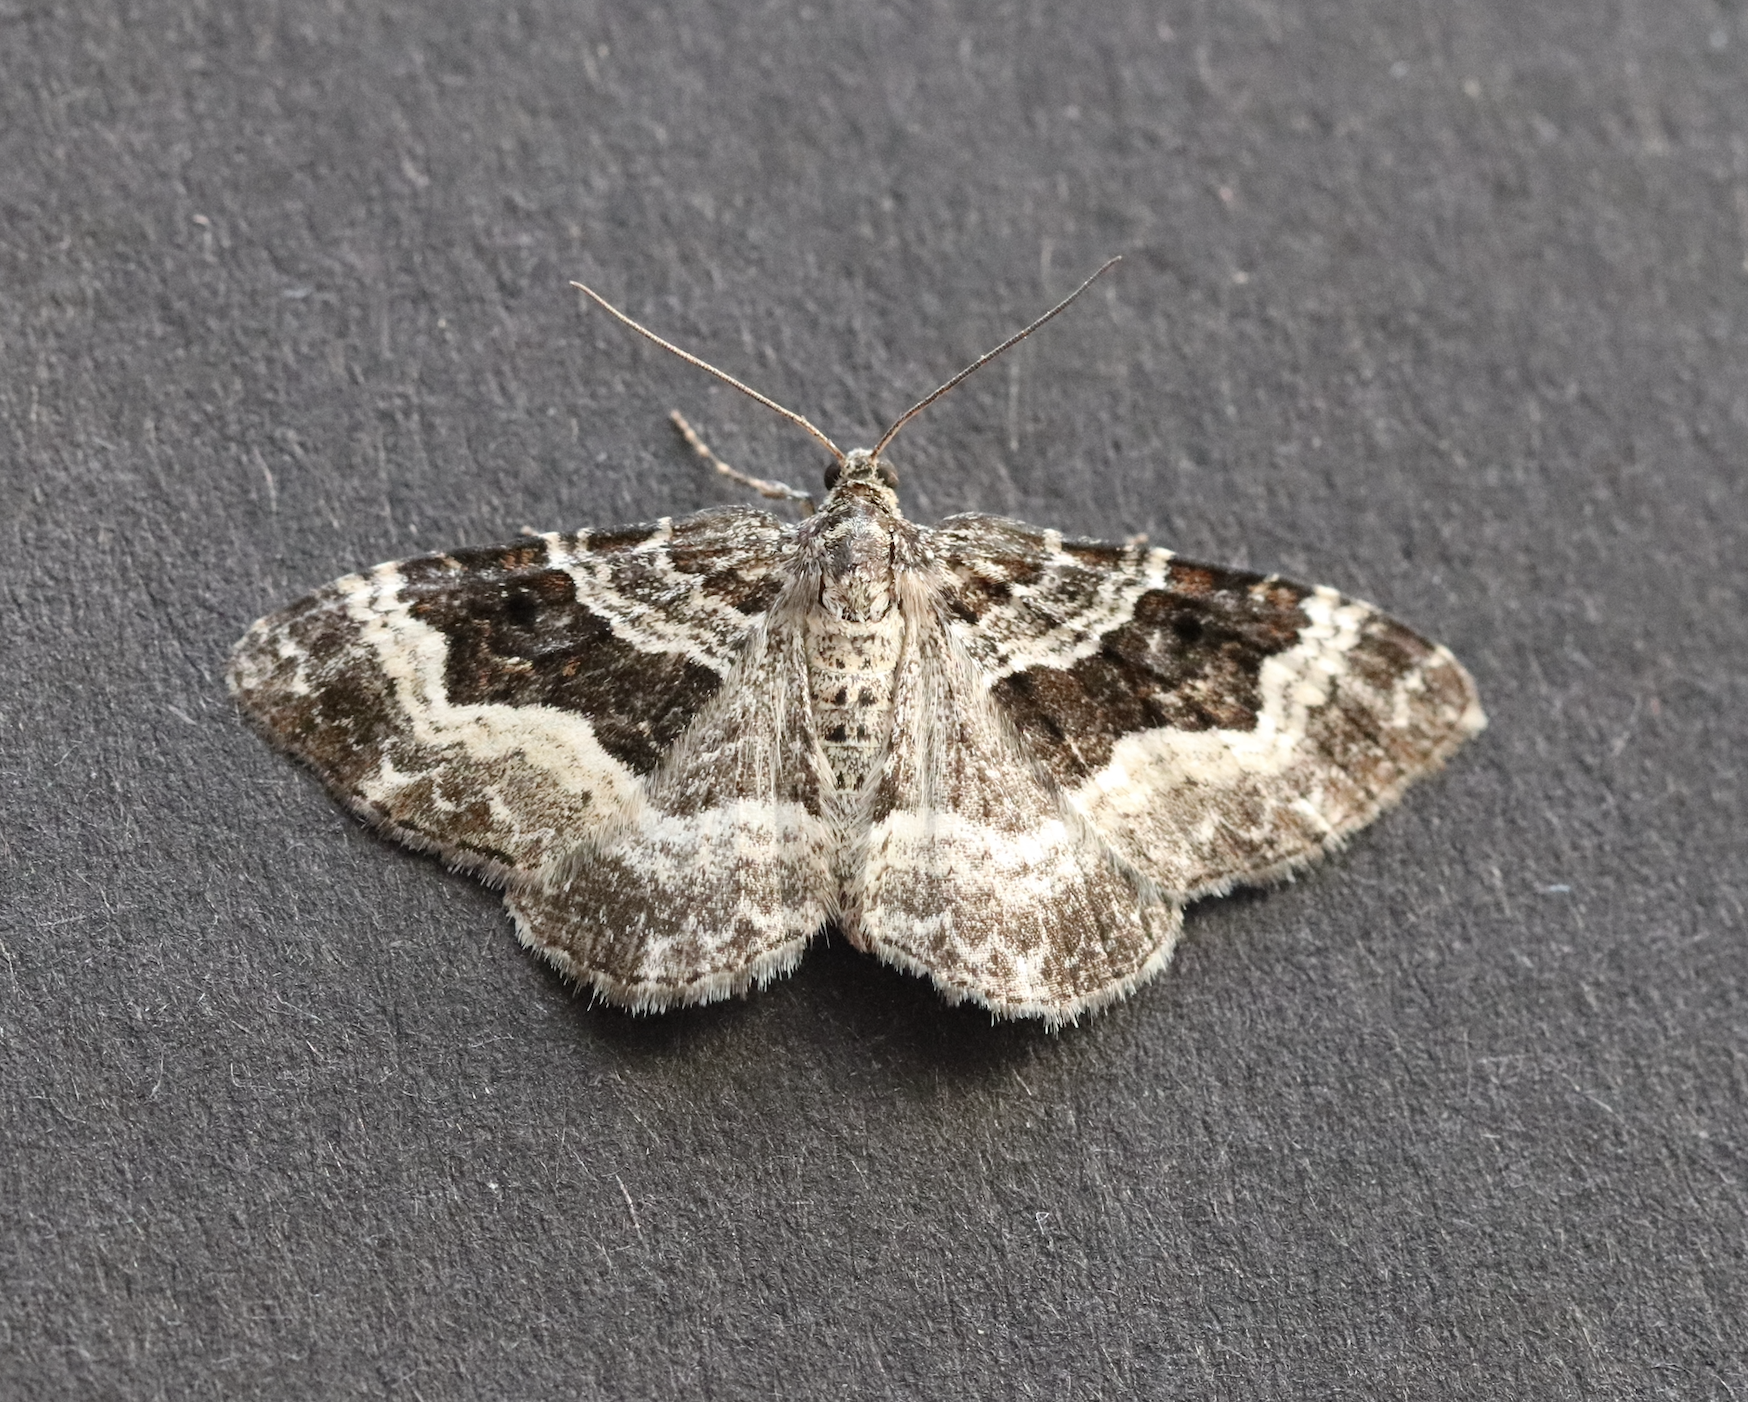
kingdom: Animalia
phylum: Arthropoda
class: Insecta
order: Lepidoptera
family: Geometridae
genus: Epirrhoe
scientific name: Epirrhoe alternata
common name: Common carpet
